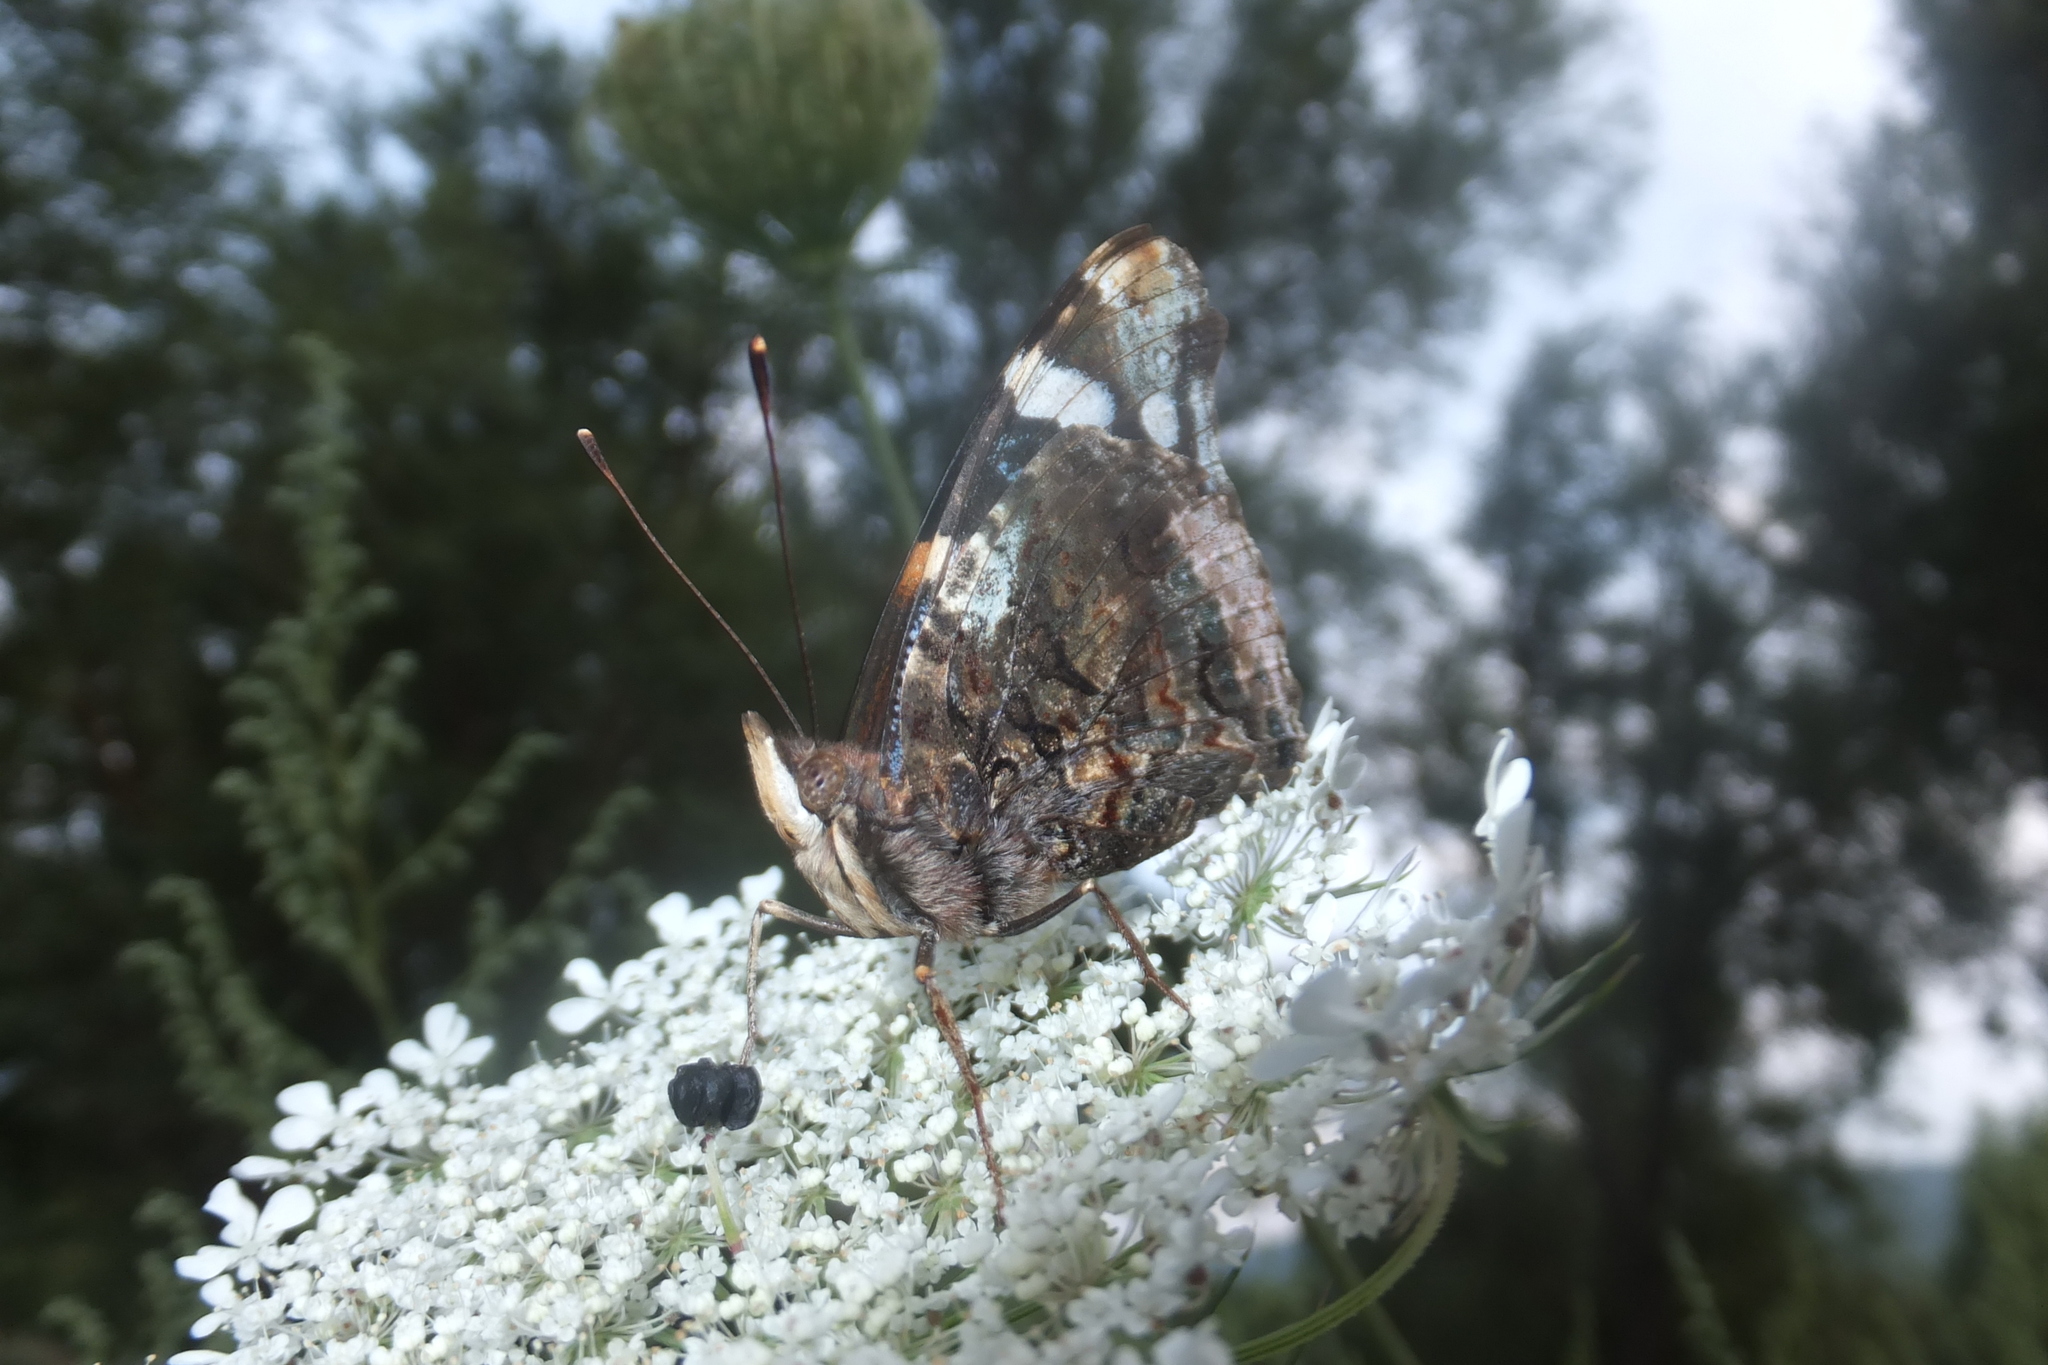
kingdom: Animalia
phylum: Arthropoda
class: Insecta
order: Lepidoptera
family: Nymphalidae
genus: Vanessa
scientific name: Vanessa atalanta
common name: Red admiral
